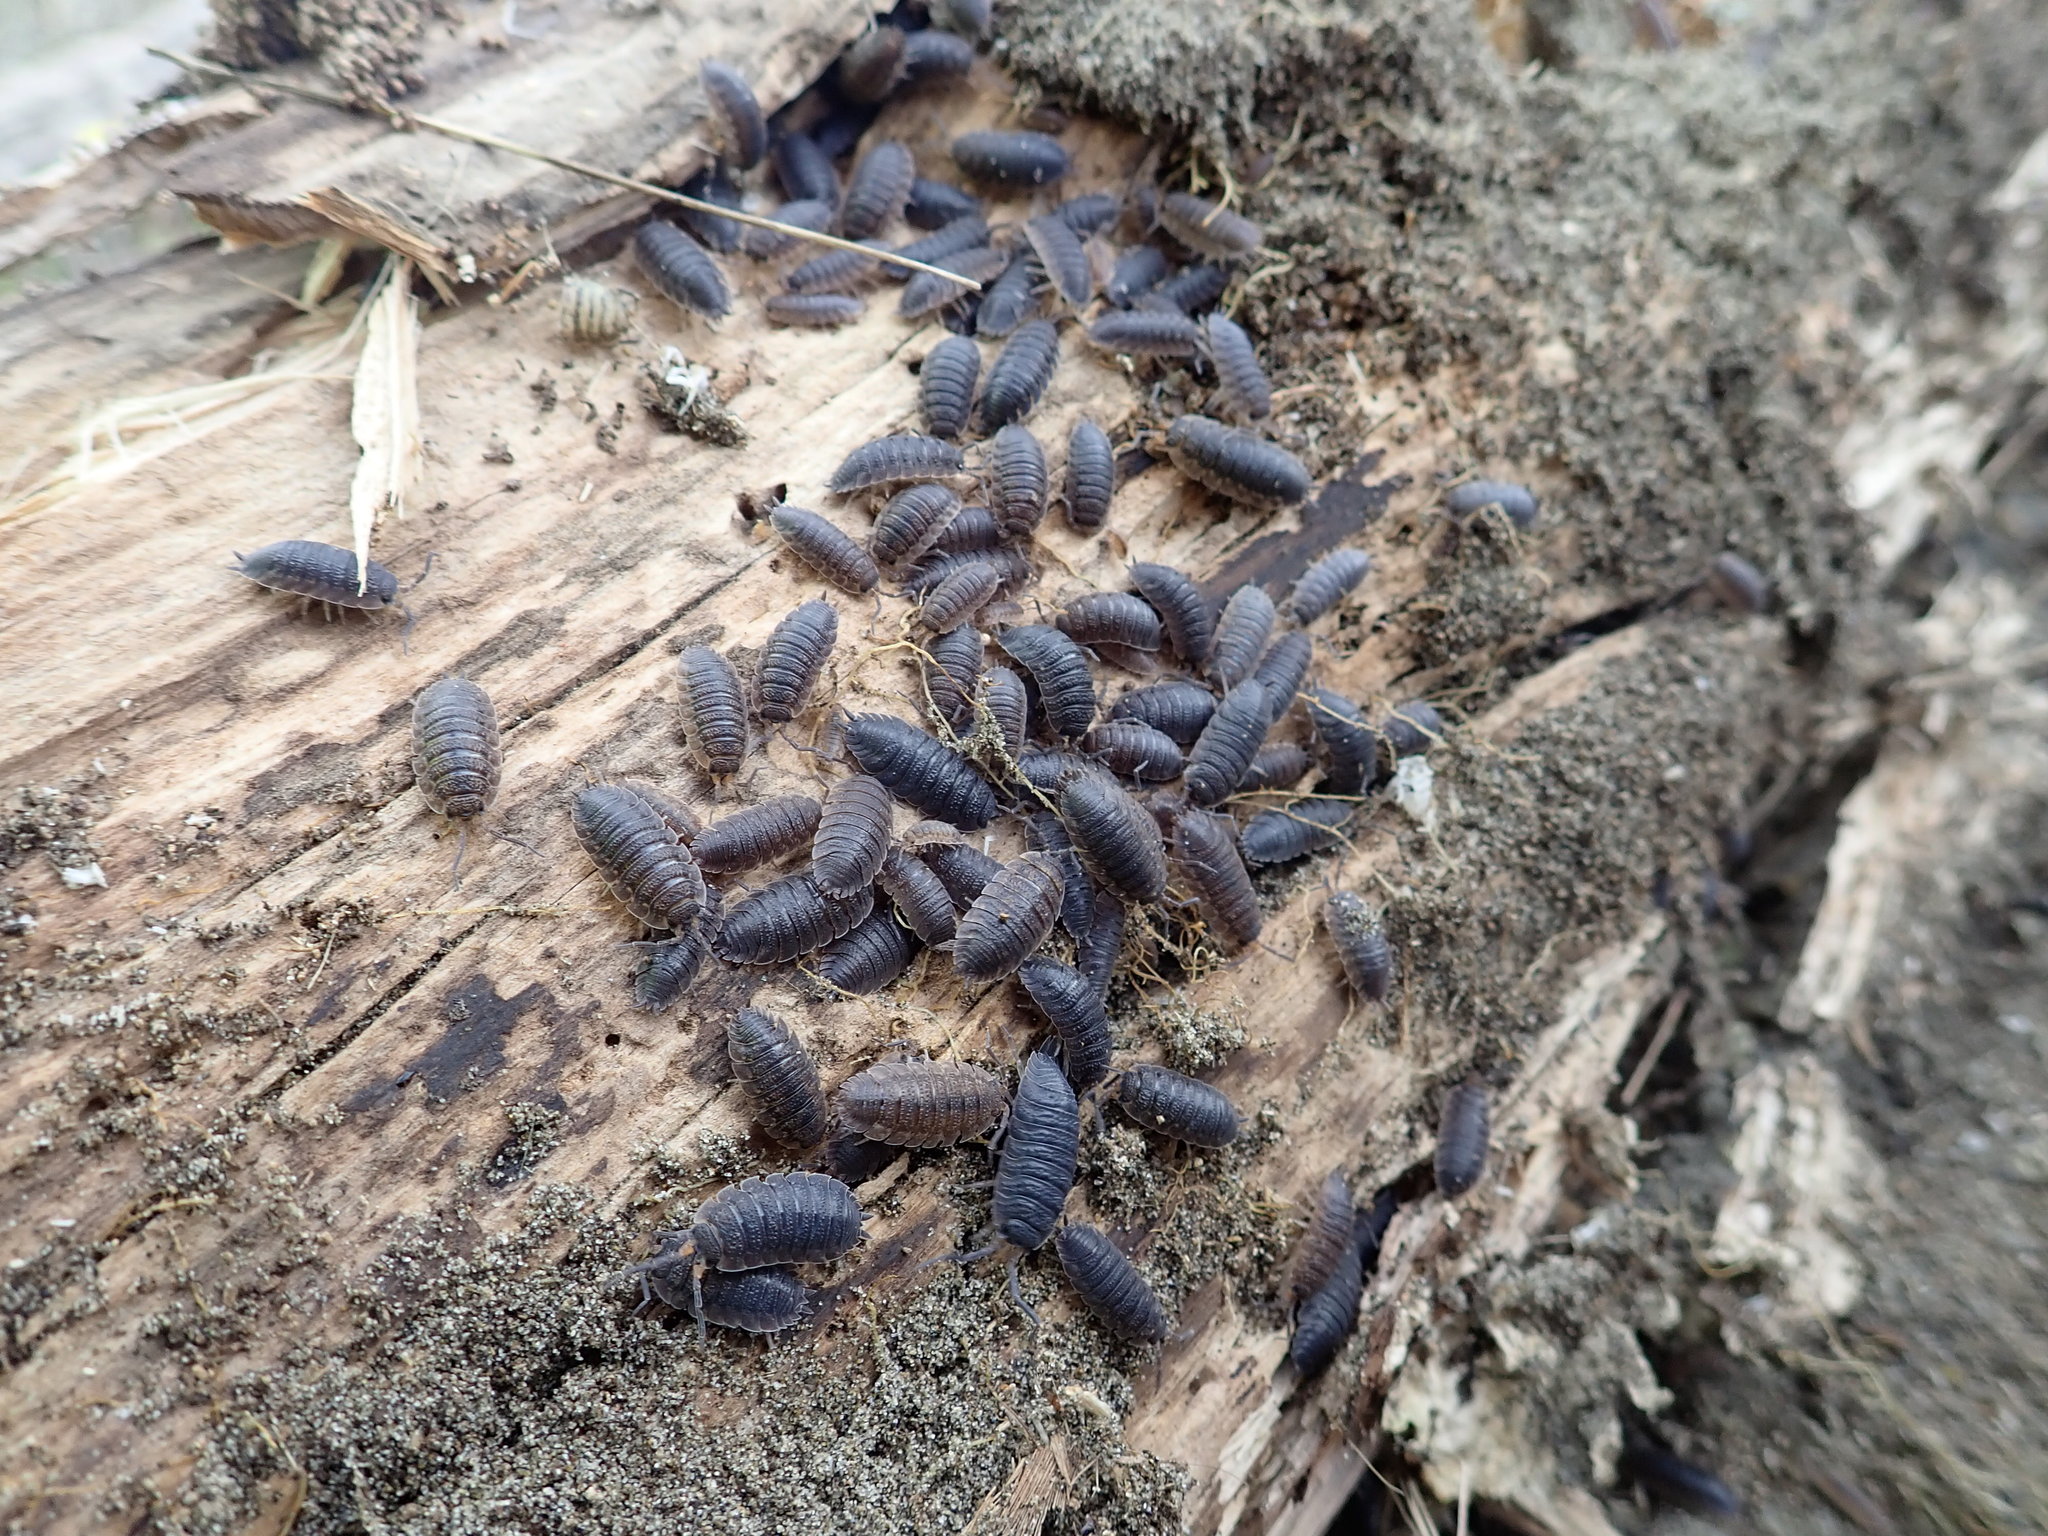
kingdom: Animalia
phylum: Arthropoda
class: Malacostraca
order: Isopoda
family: Porcellionidae
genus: Porcellio
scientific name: Porcellio scaber
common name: Common rough woodlouse
